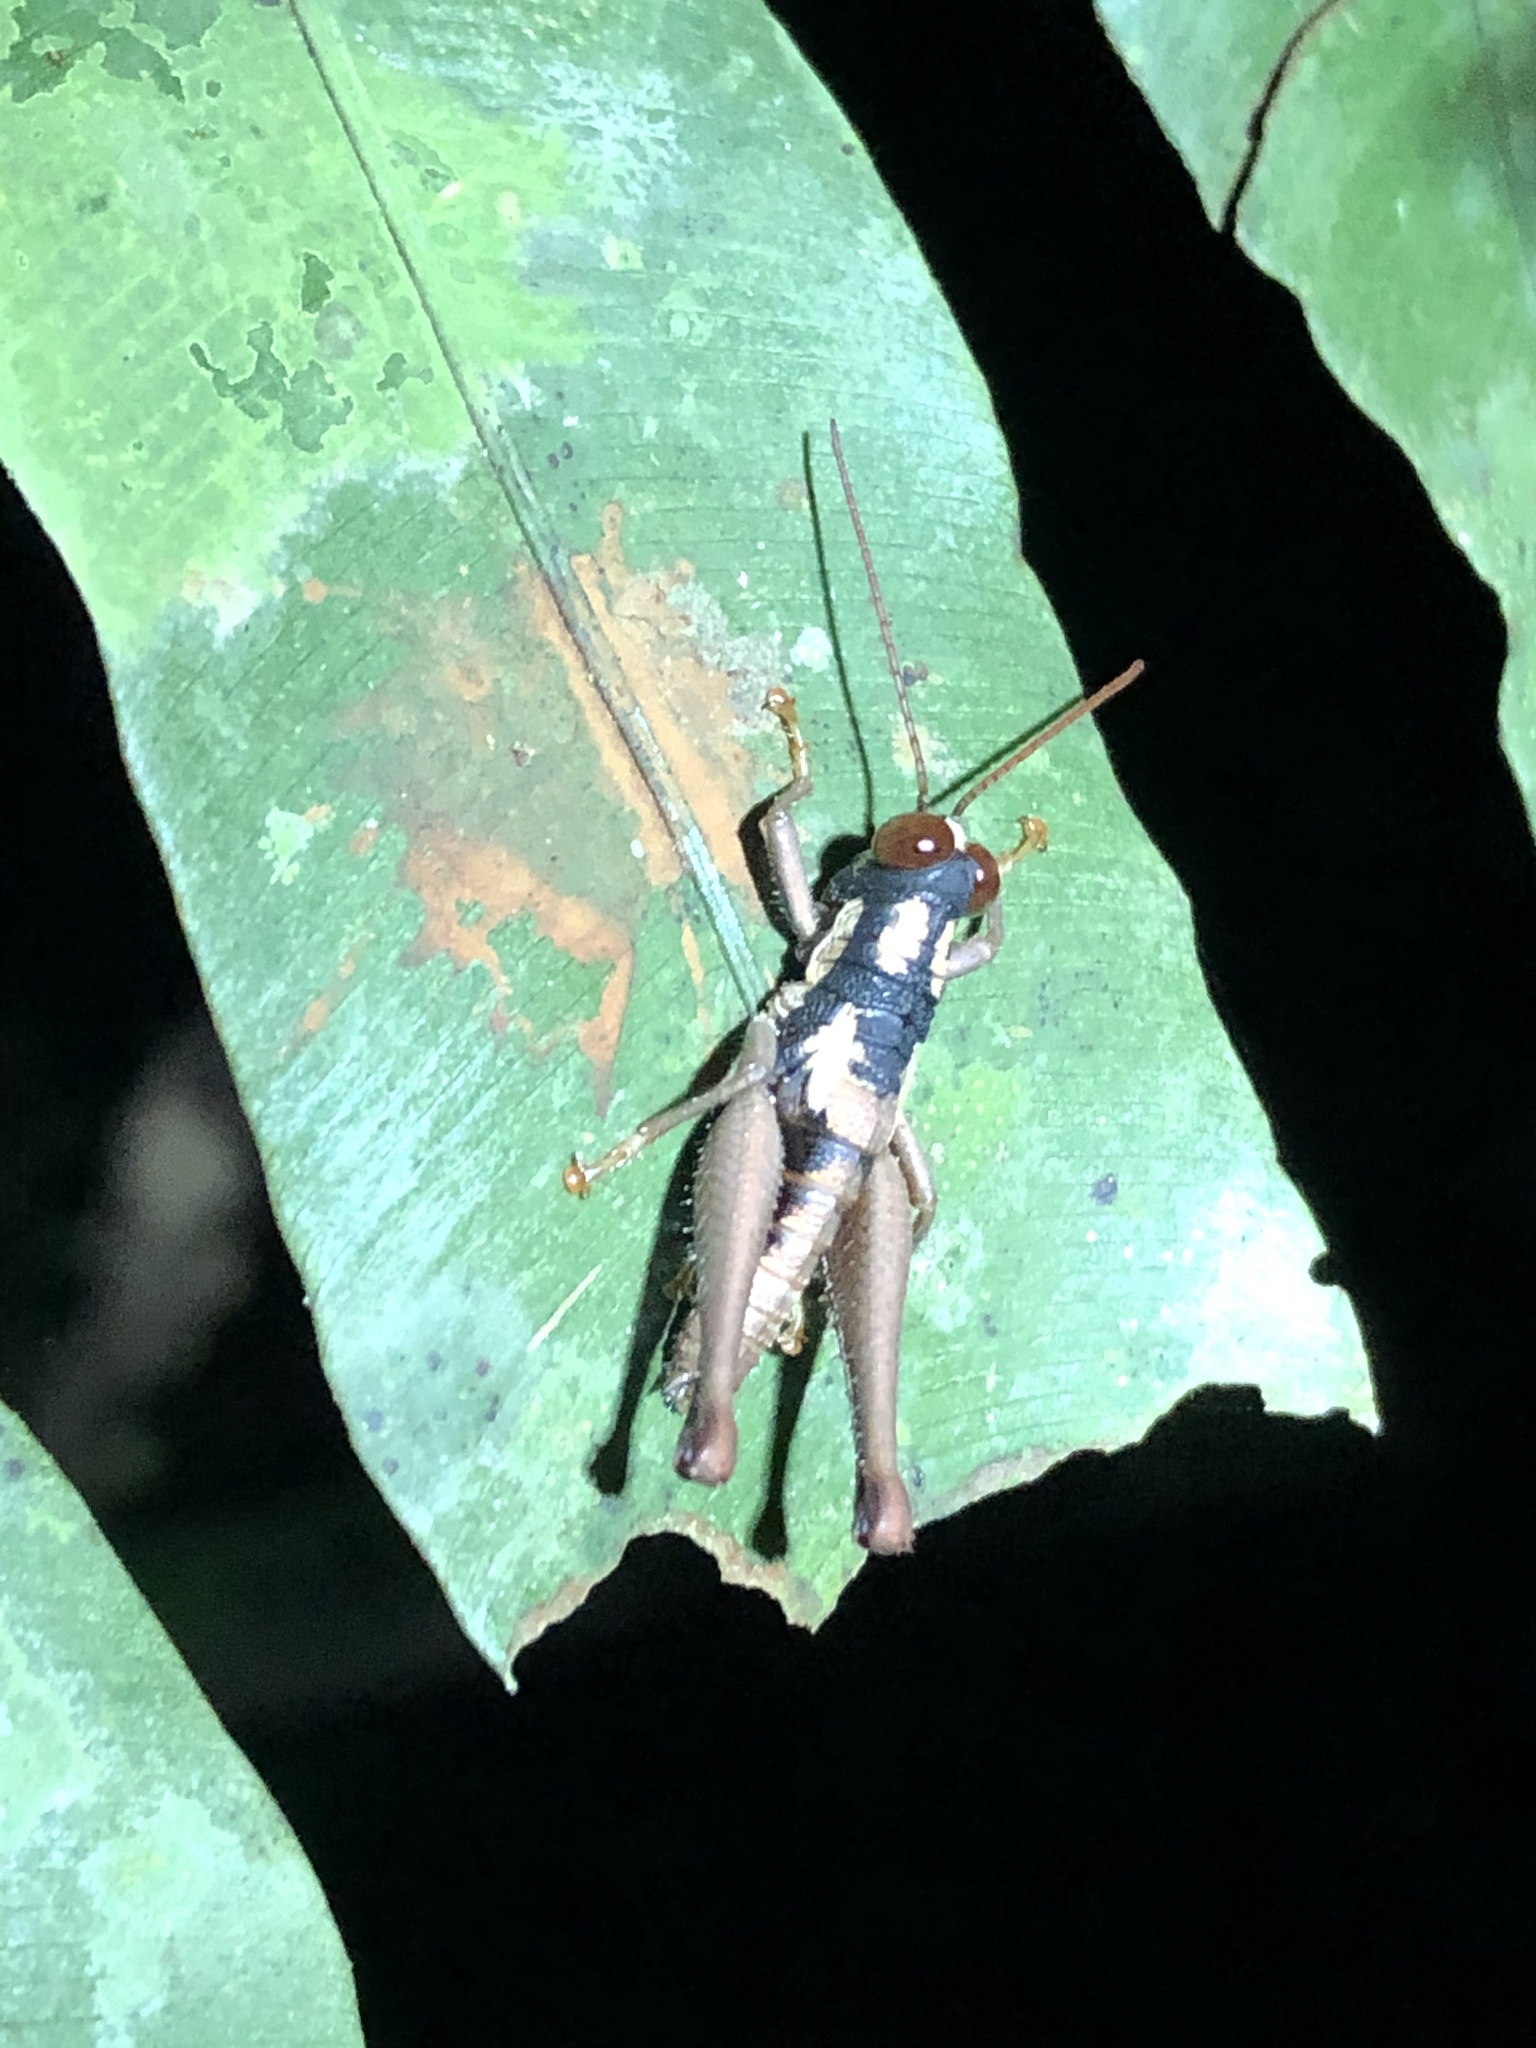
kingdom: Animalia
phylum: Arthropoda
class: Insecta
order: Orthoptera
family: Acrididae
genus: Stenelutracris
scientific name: Stenelutracris lignicola
